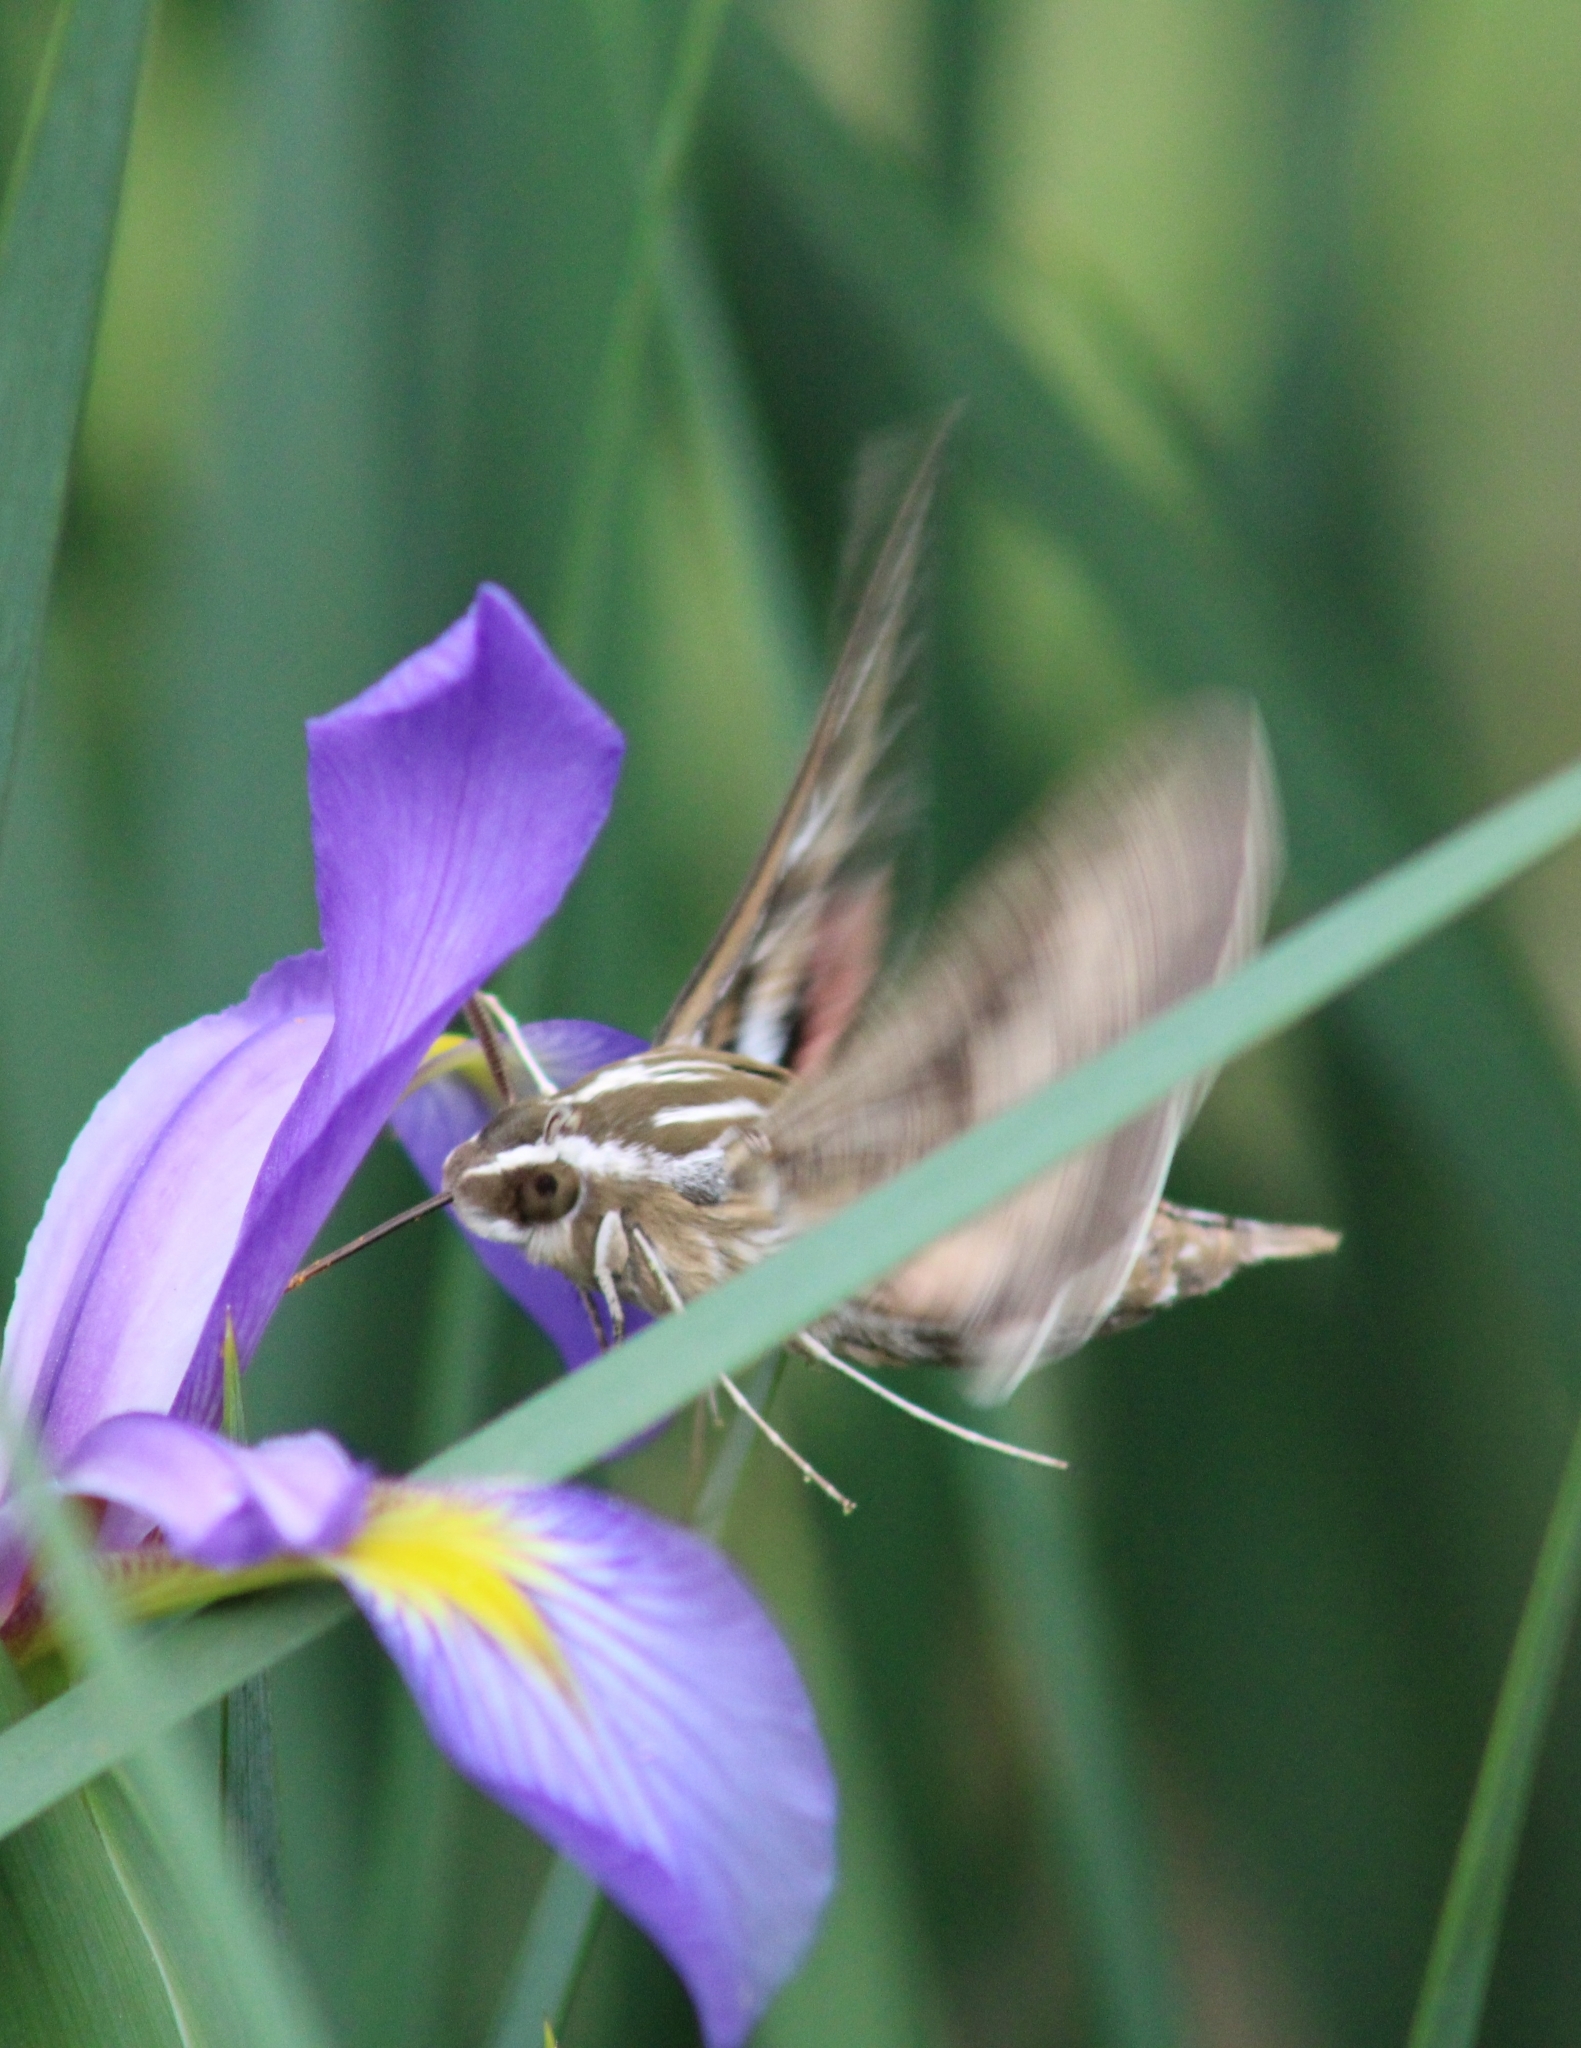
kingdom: Animalia
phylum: Arthropoda
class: Insecta
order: Lepidoptera
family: Sphingidae
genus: Hyles
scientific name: Hyles lineata
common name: White-lined sphinx
